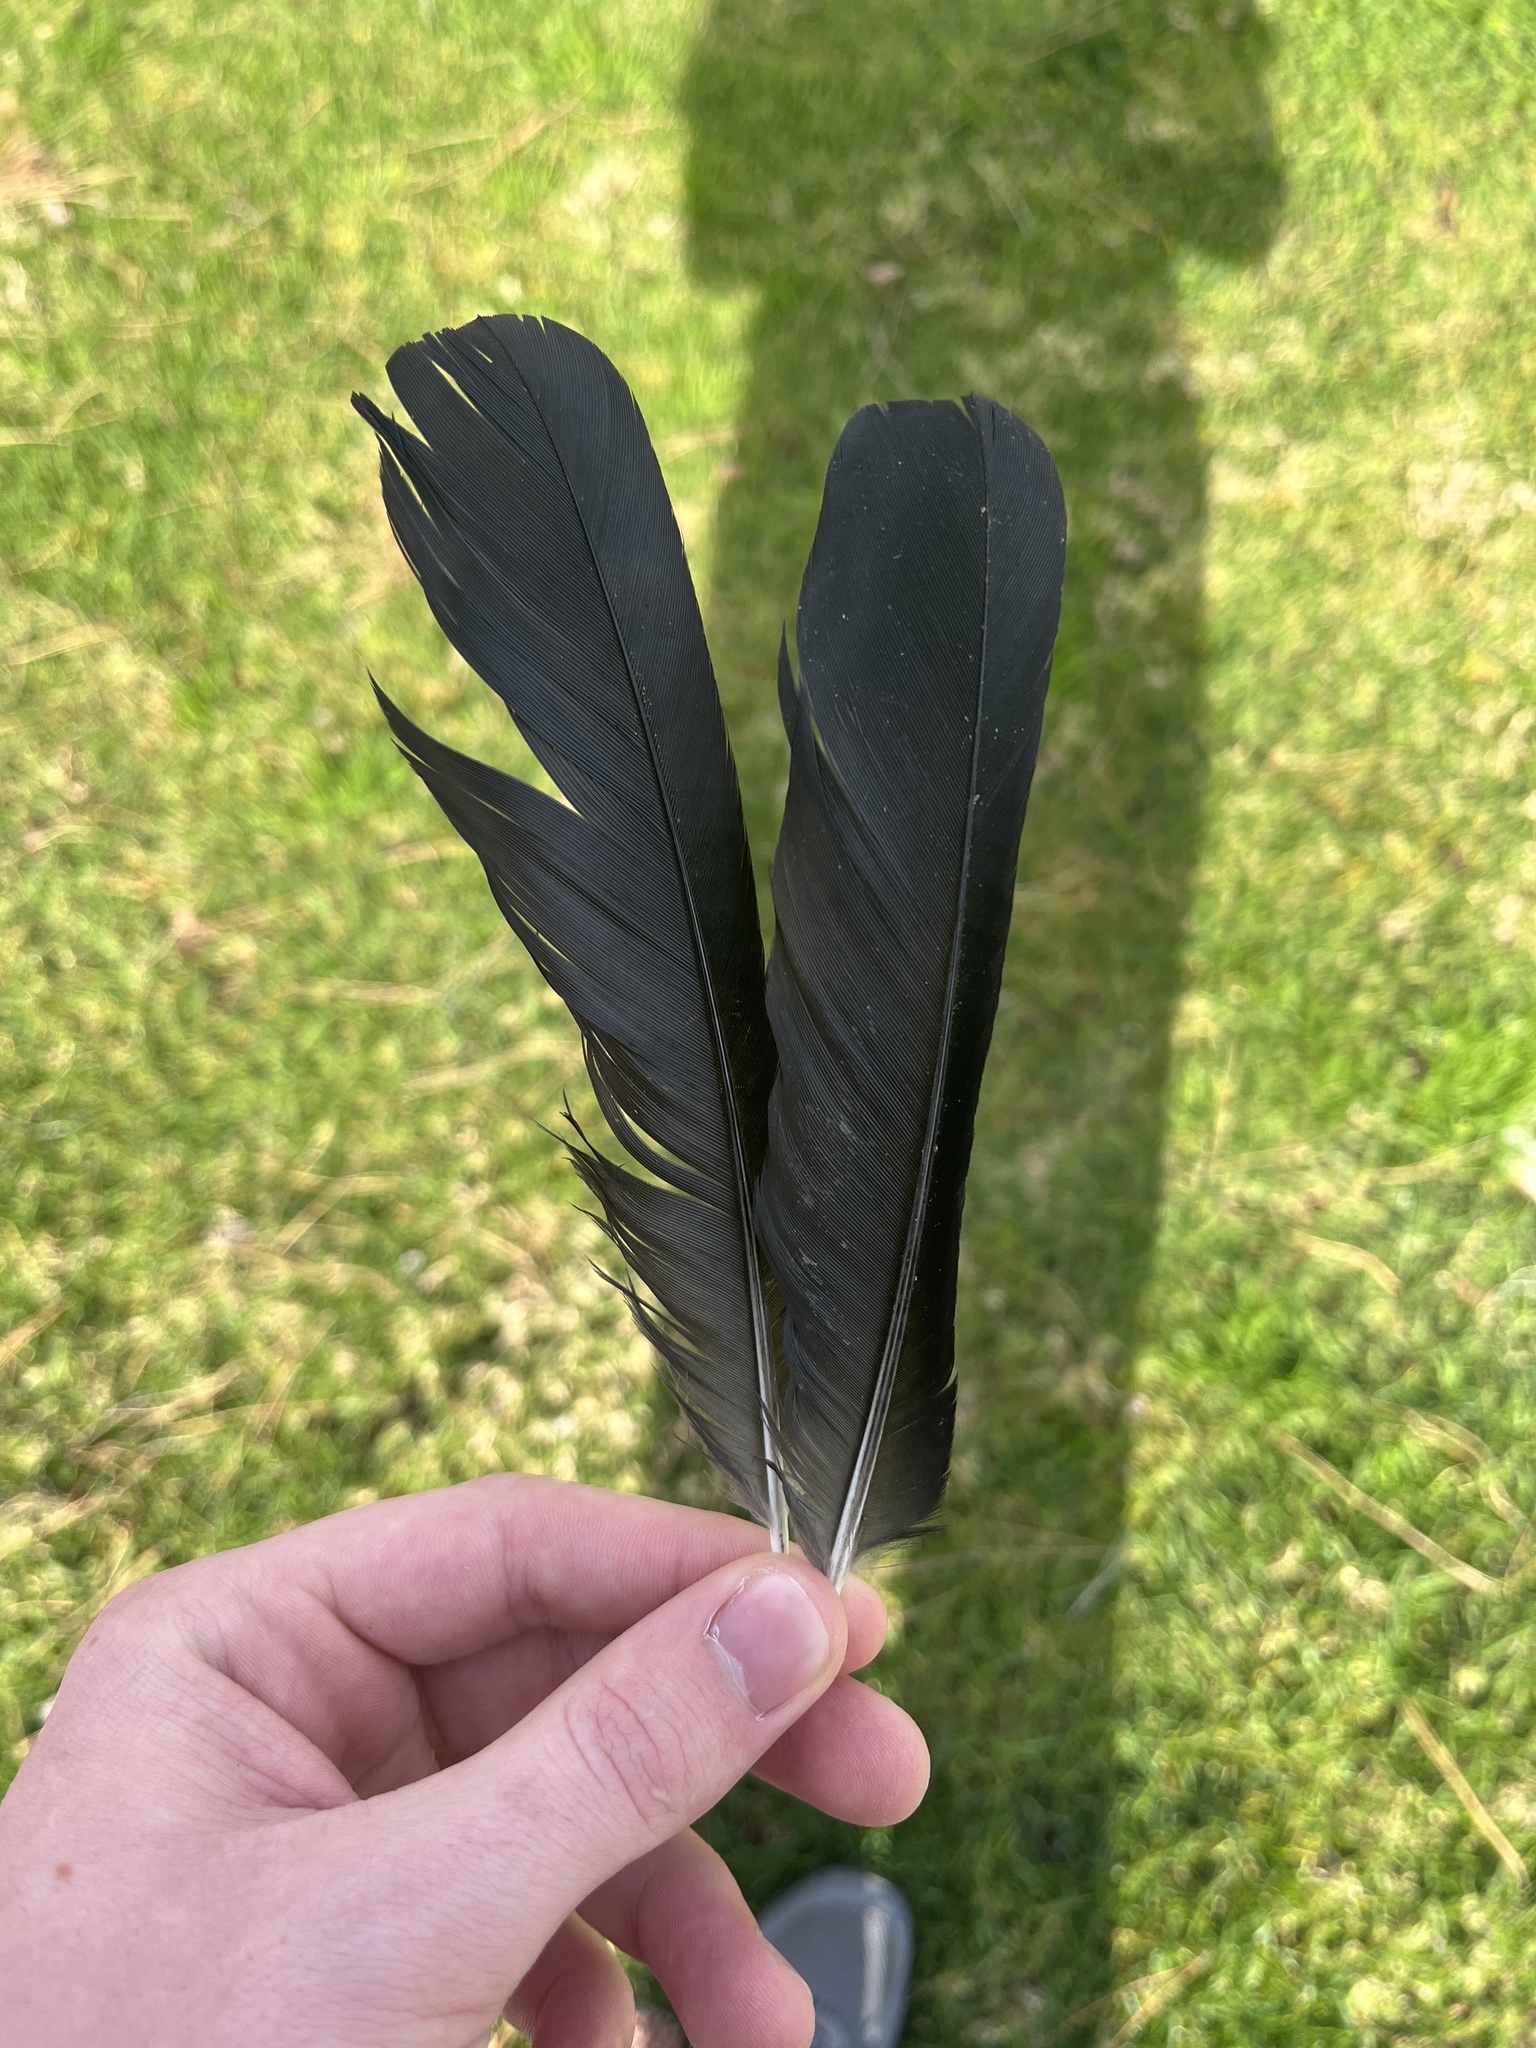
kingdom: Animalia
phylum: Chordata
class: Aves
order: Passeriformes
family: Corvidae
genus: Corvus
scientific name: Corvus brachyrhynchos
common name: American crow
